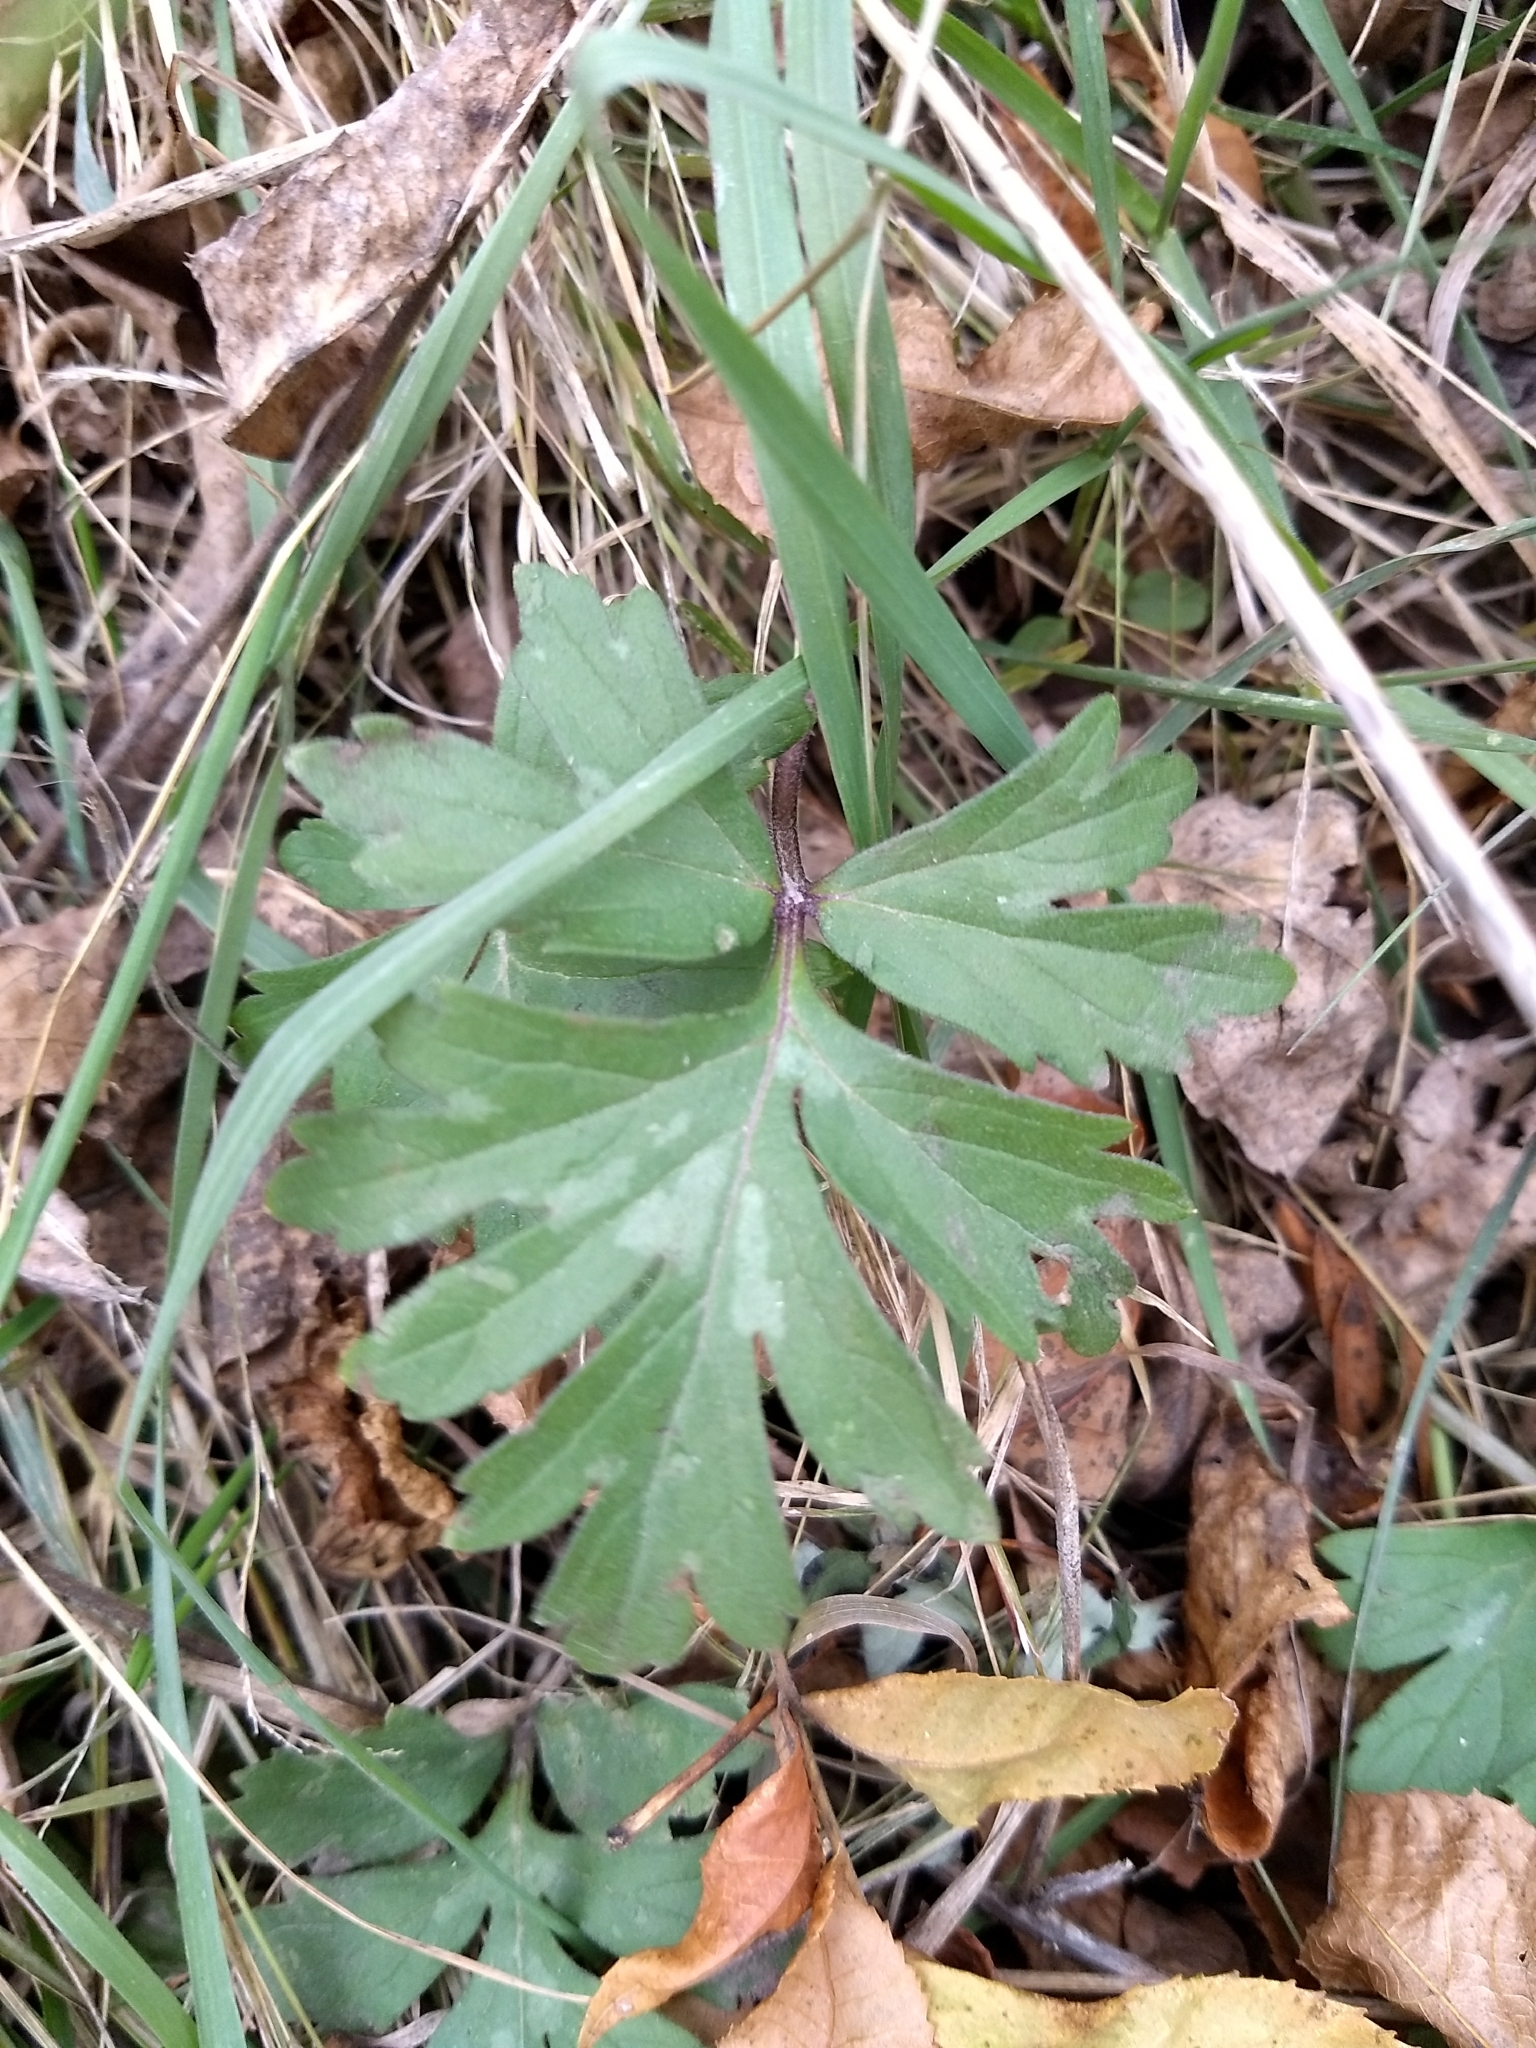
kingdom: Plantae
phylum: Tracheophyta
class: Magnoliopsida
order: Boraginales
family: Hydrophyllaceae
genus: Hydrophyllum
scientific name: Hydrophyllum virginianum
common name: Virginia waterleaf
